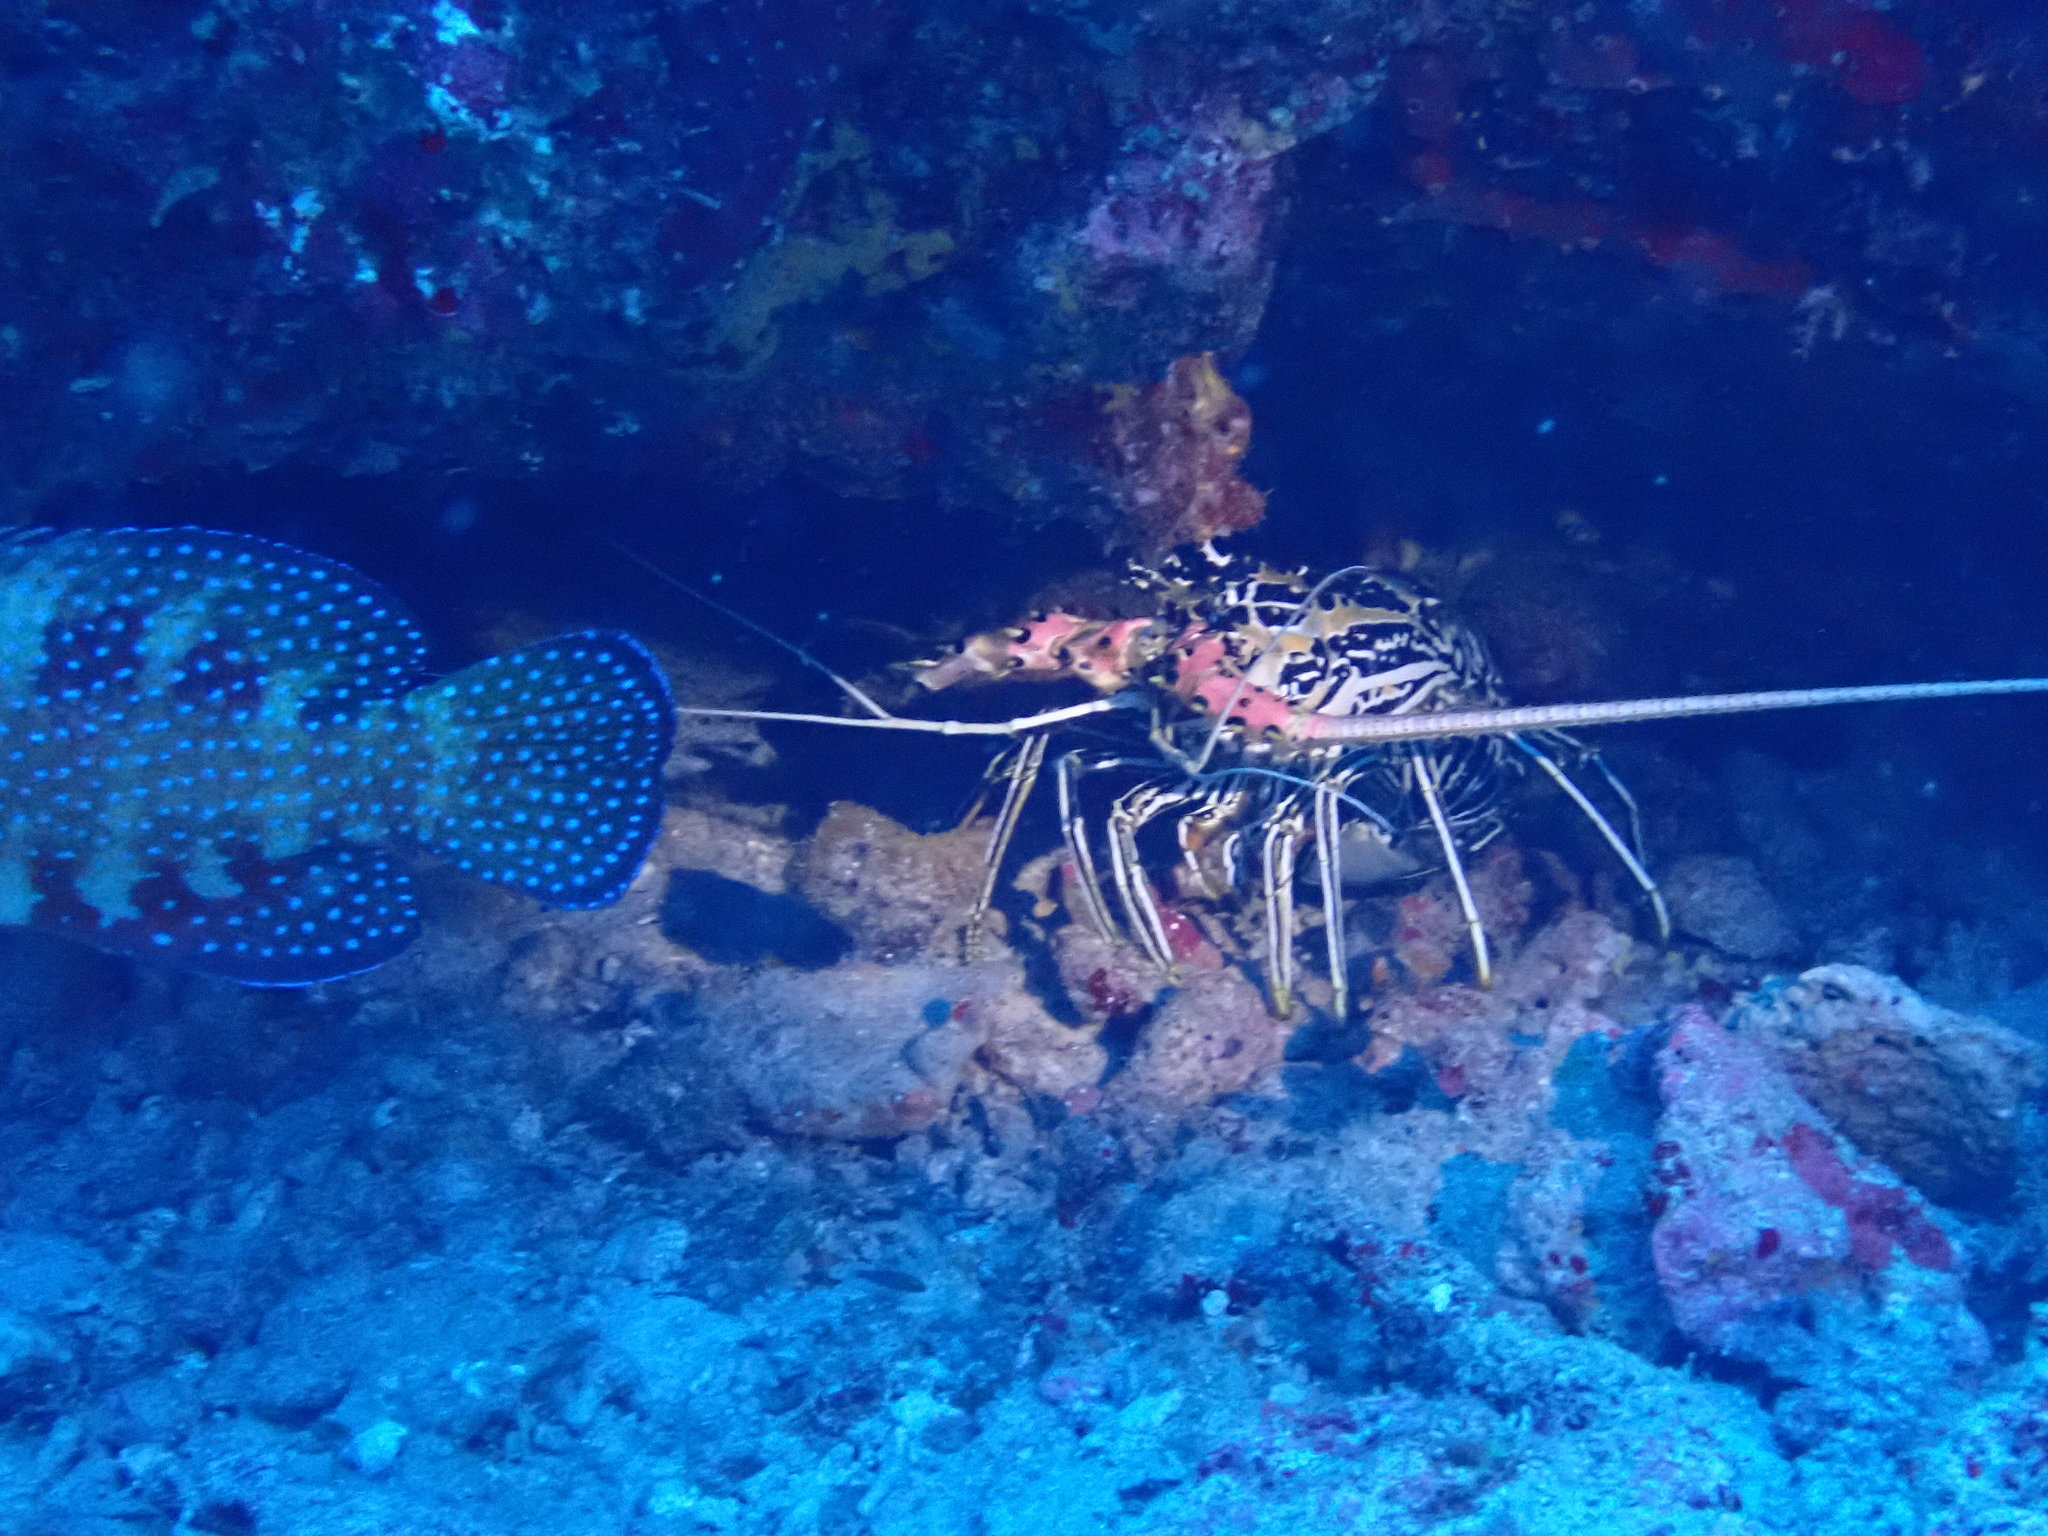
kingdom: Animalia
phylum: Arthropoda
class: Malacostraca
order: Decapoda
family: Palinuridae
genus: Panulirus
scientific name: Panulirus versicolor
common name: Painted spiny lobster
